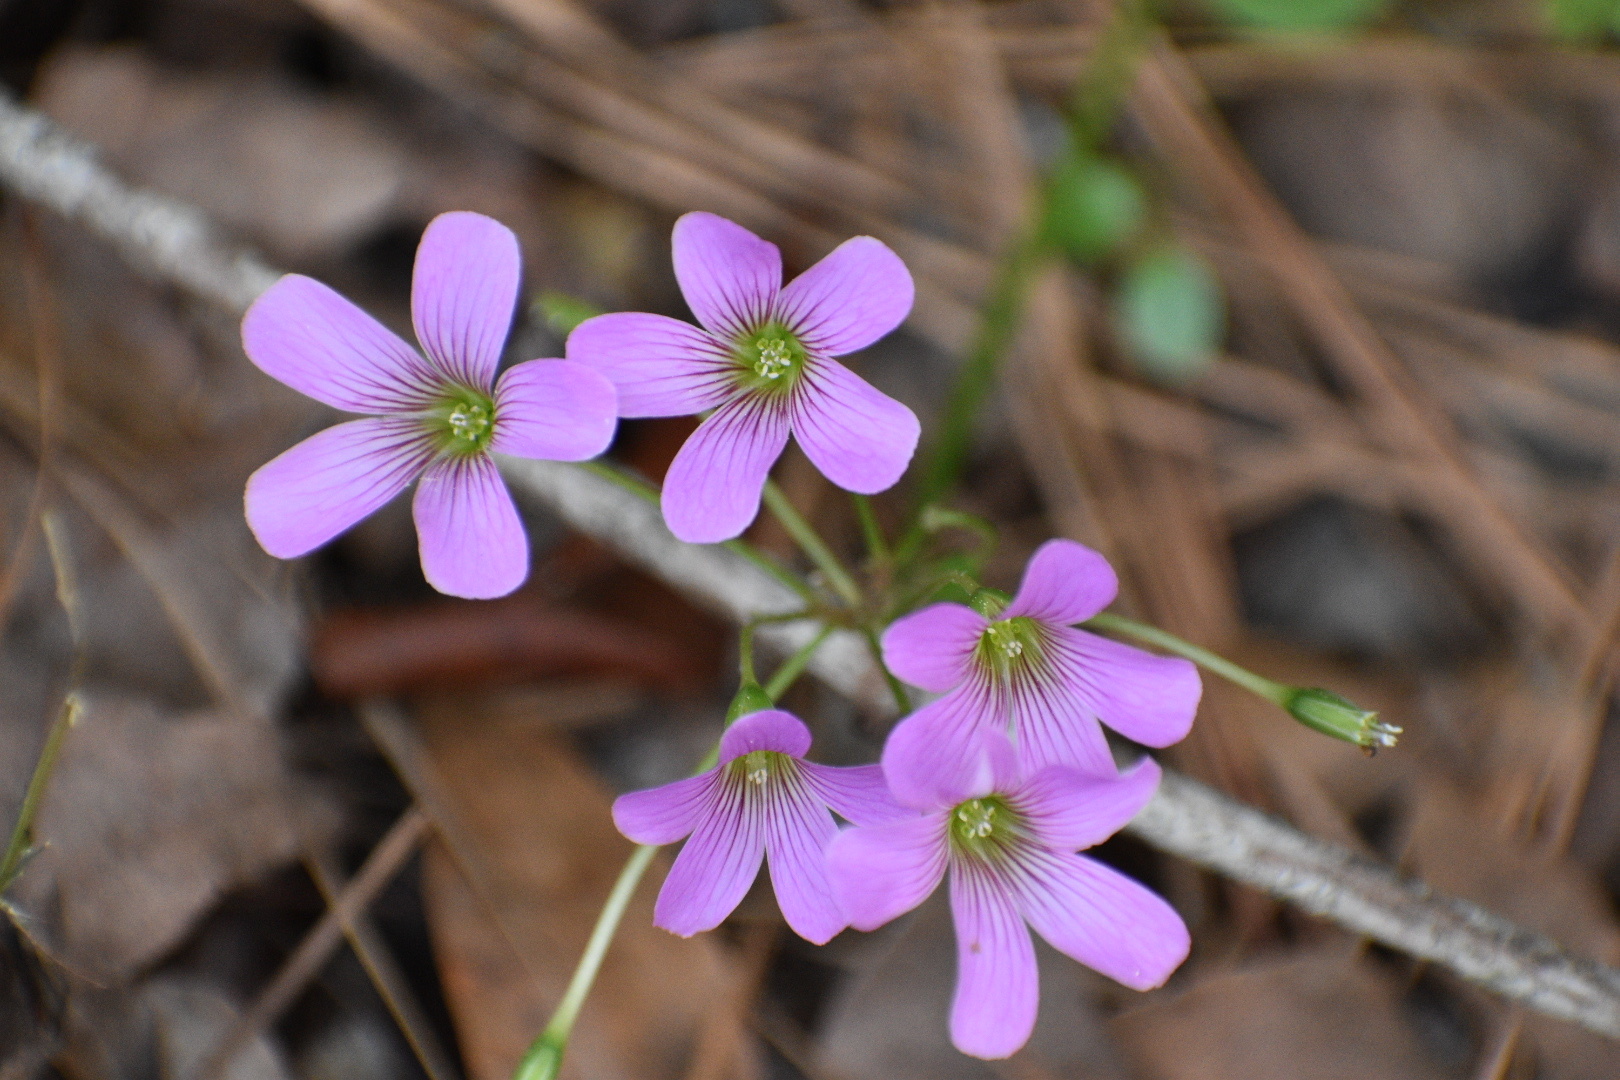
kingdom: Plantae
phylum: Tracheophyta
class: Magnoliopsida
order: Oxalidales
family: Oxalidaceae
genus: Oxalis
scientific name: Oxalis debilis
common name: Large-flowered pink-sorrel
